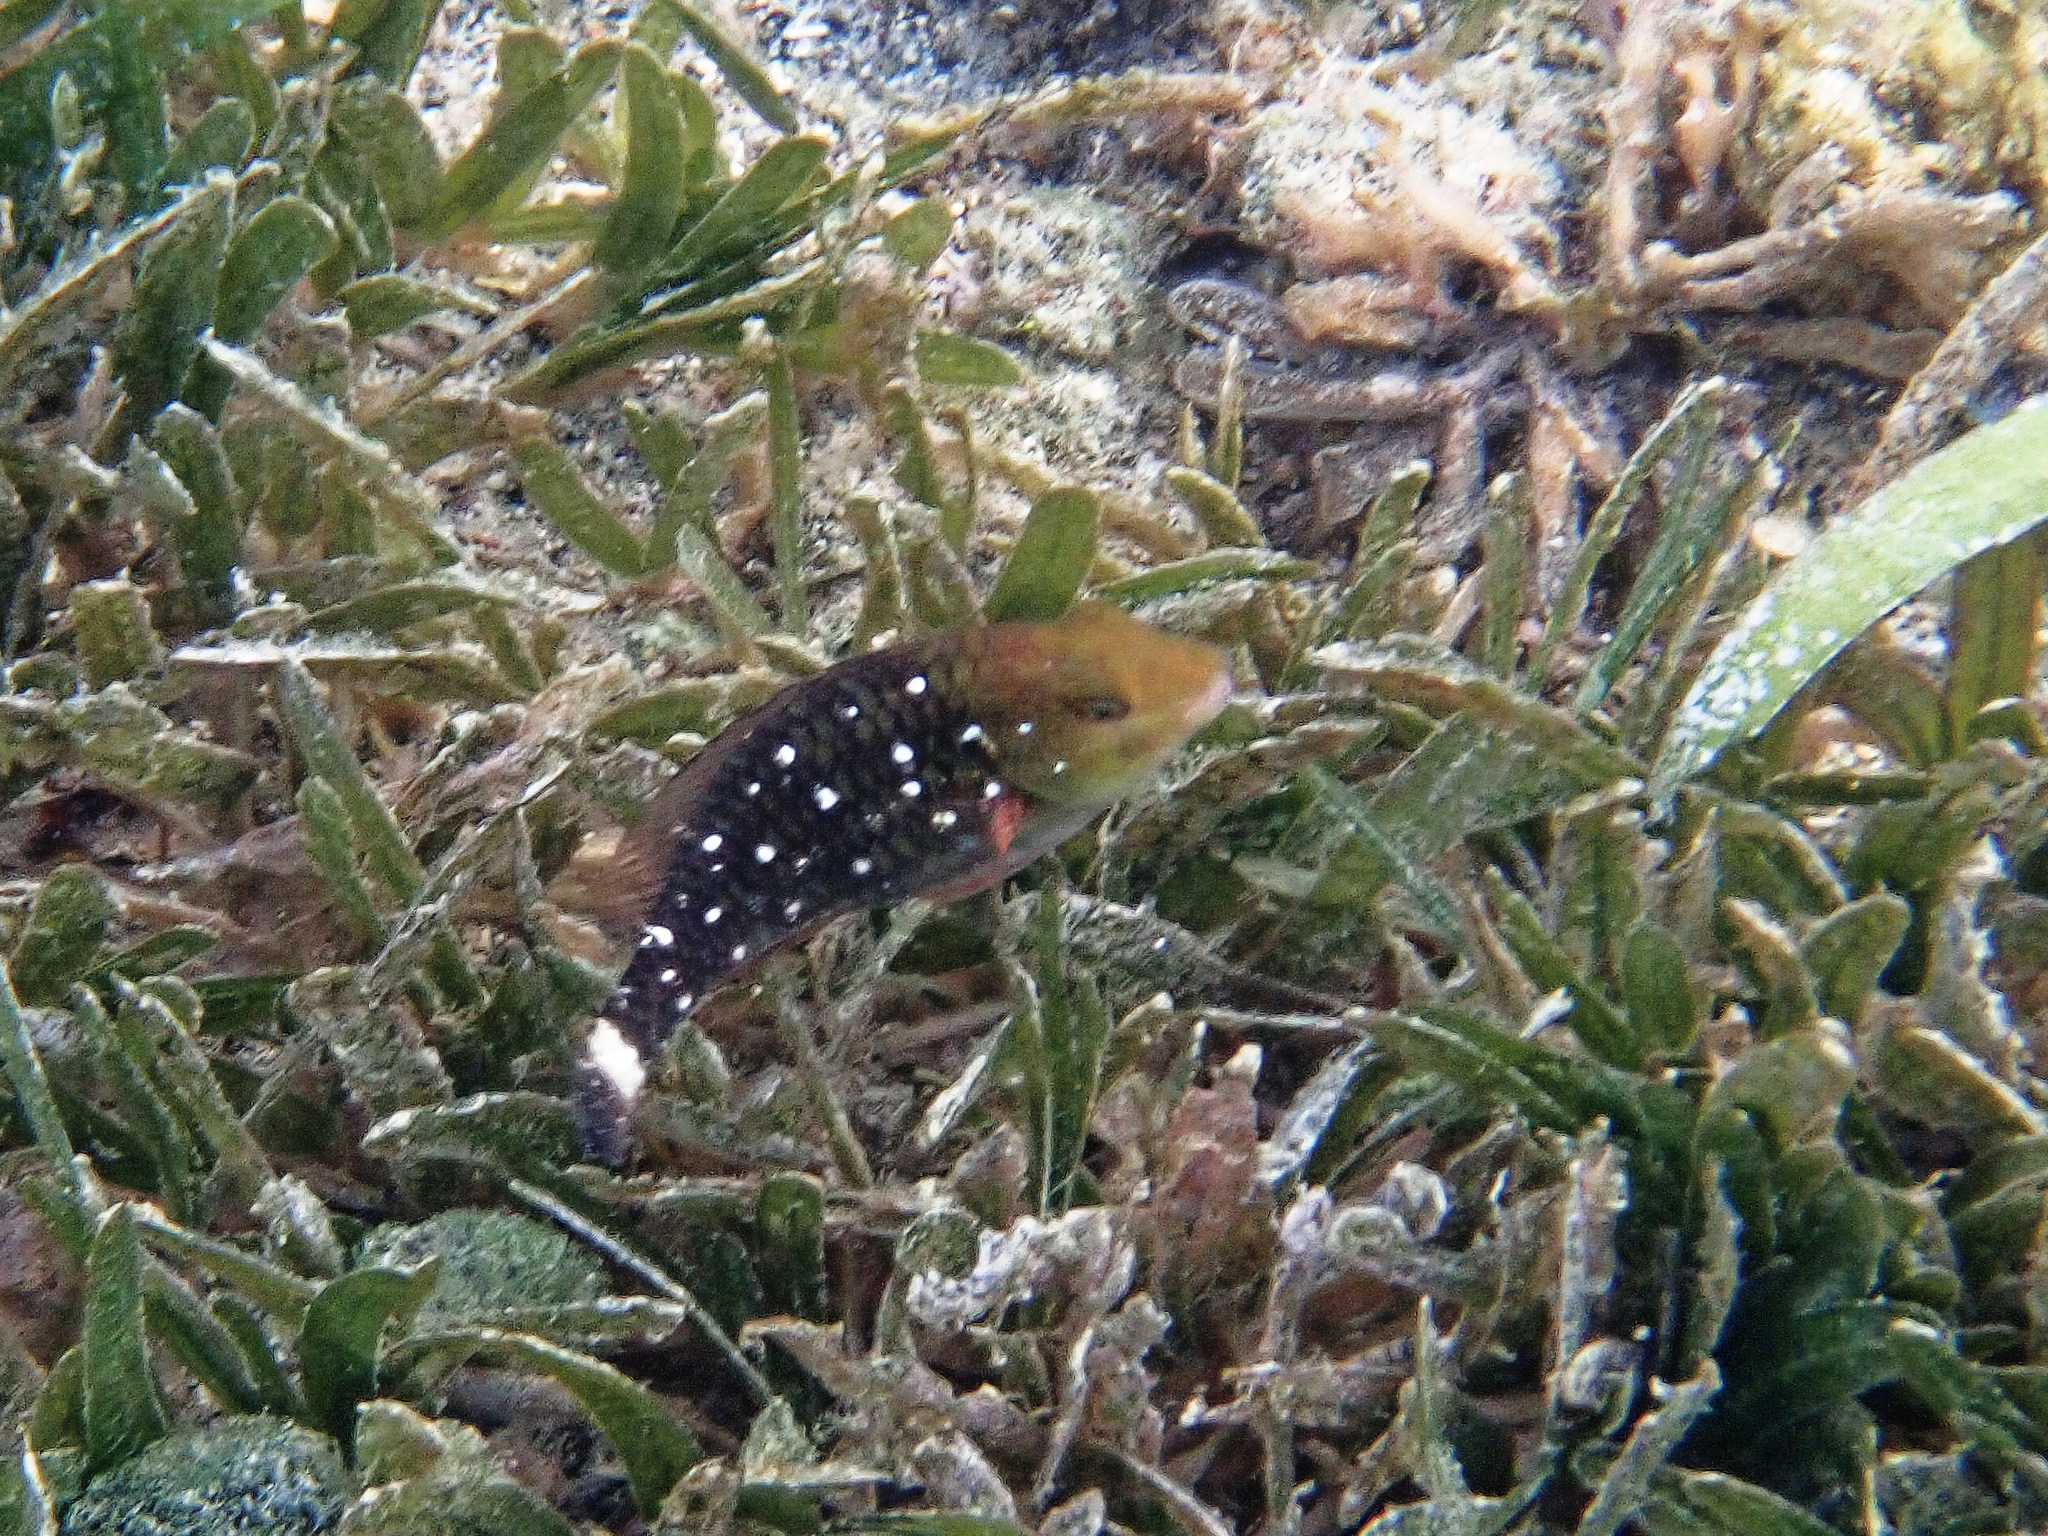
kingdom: Animalia
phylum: Chordata
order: Perciformes
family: Scaridae
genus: Sparisoma
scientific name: Sparisoma viride
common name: Stoplight parrotfish
